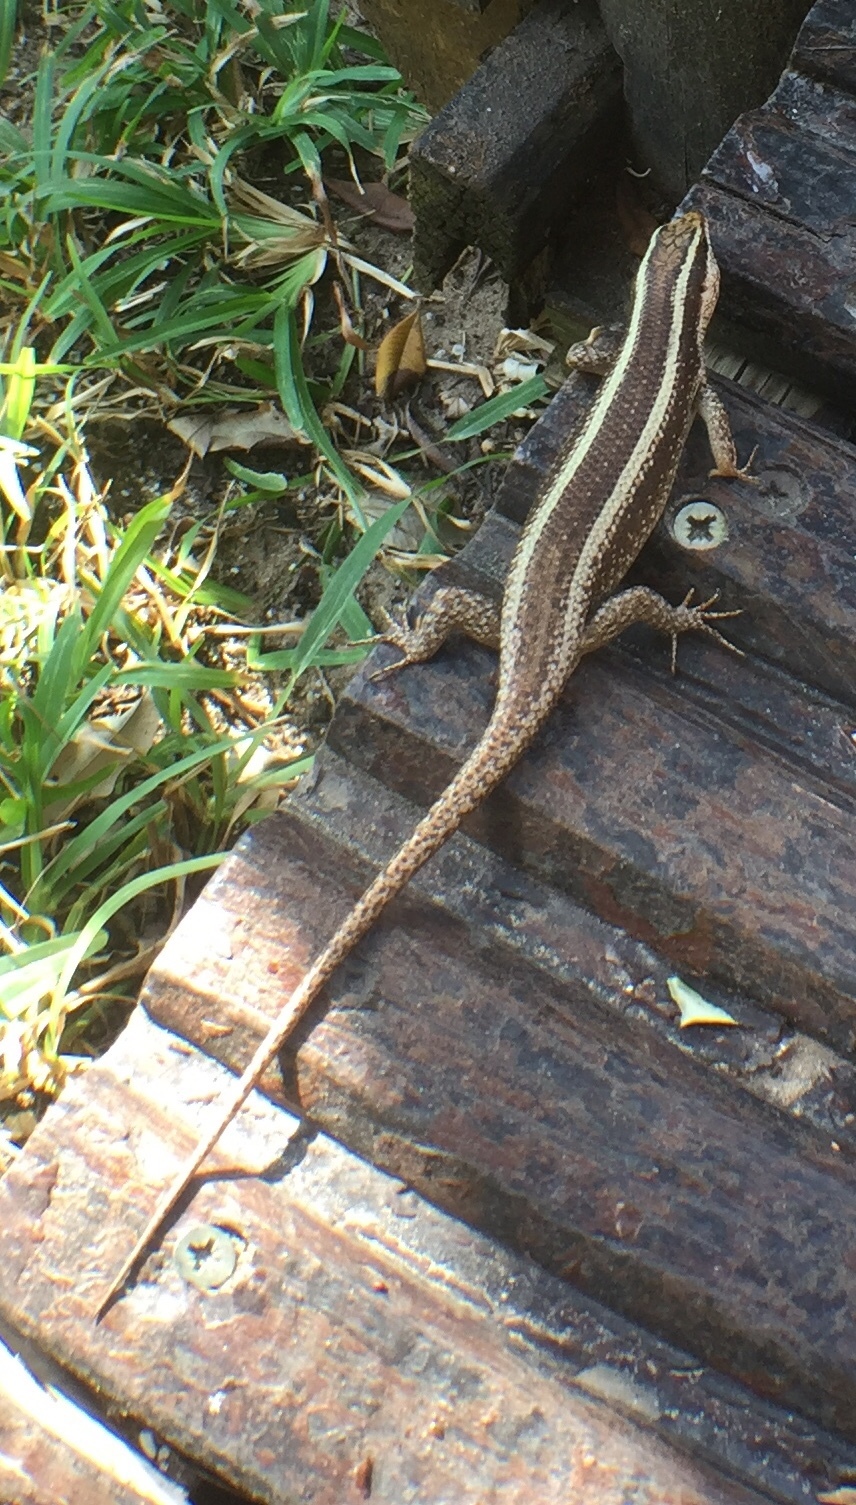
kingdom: Animalia
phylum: Chordata
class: Squamata
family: Scincidae
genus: Trachylepis
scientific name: Trachylepis striata
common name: African striped mabuya
